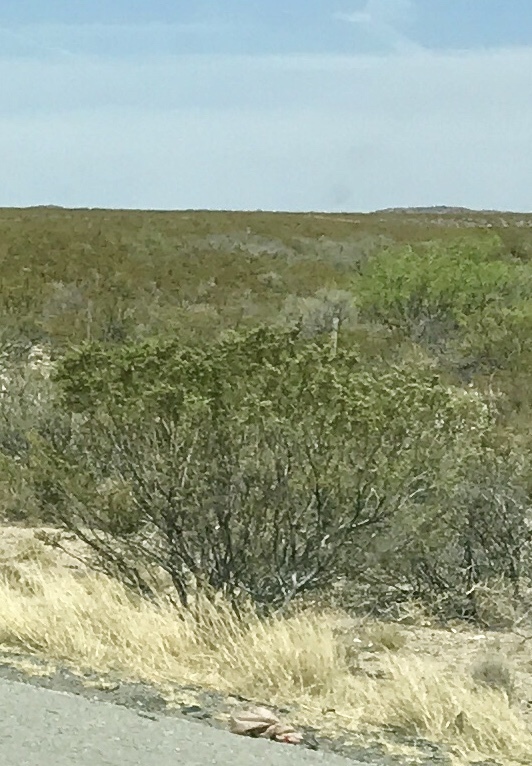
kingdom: Plantae
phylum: Tracheophyta
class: Magnoliopsida
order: Zygophyllales
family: Zygophyllaceae
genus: Larrea
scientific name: Larrea tridentata
